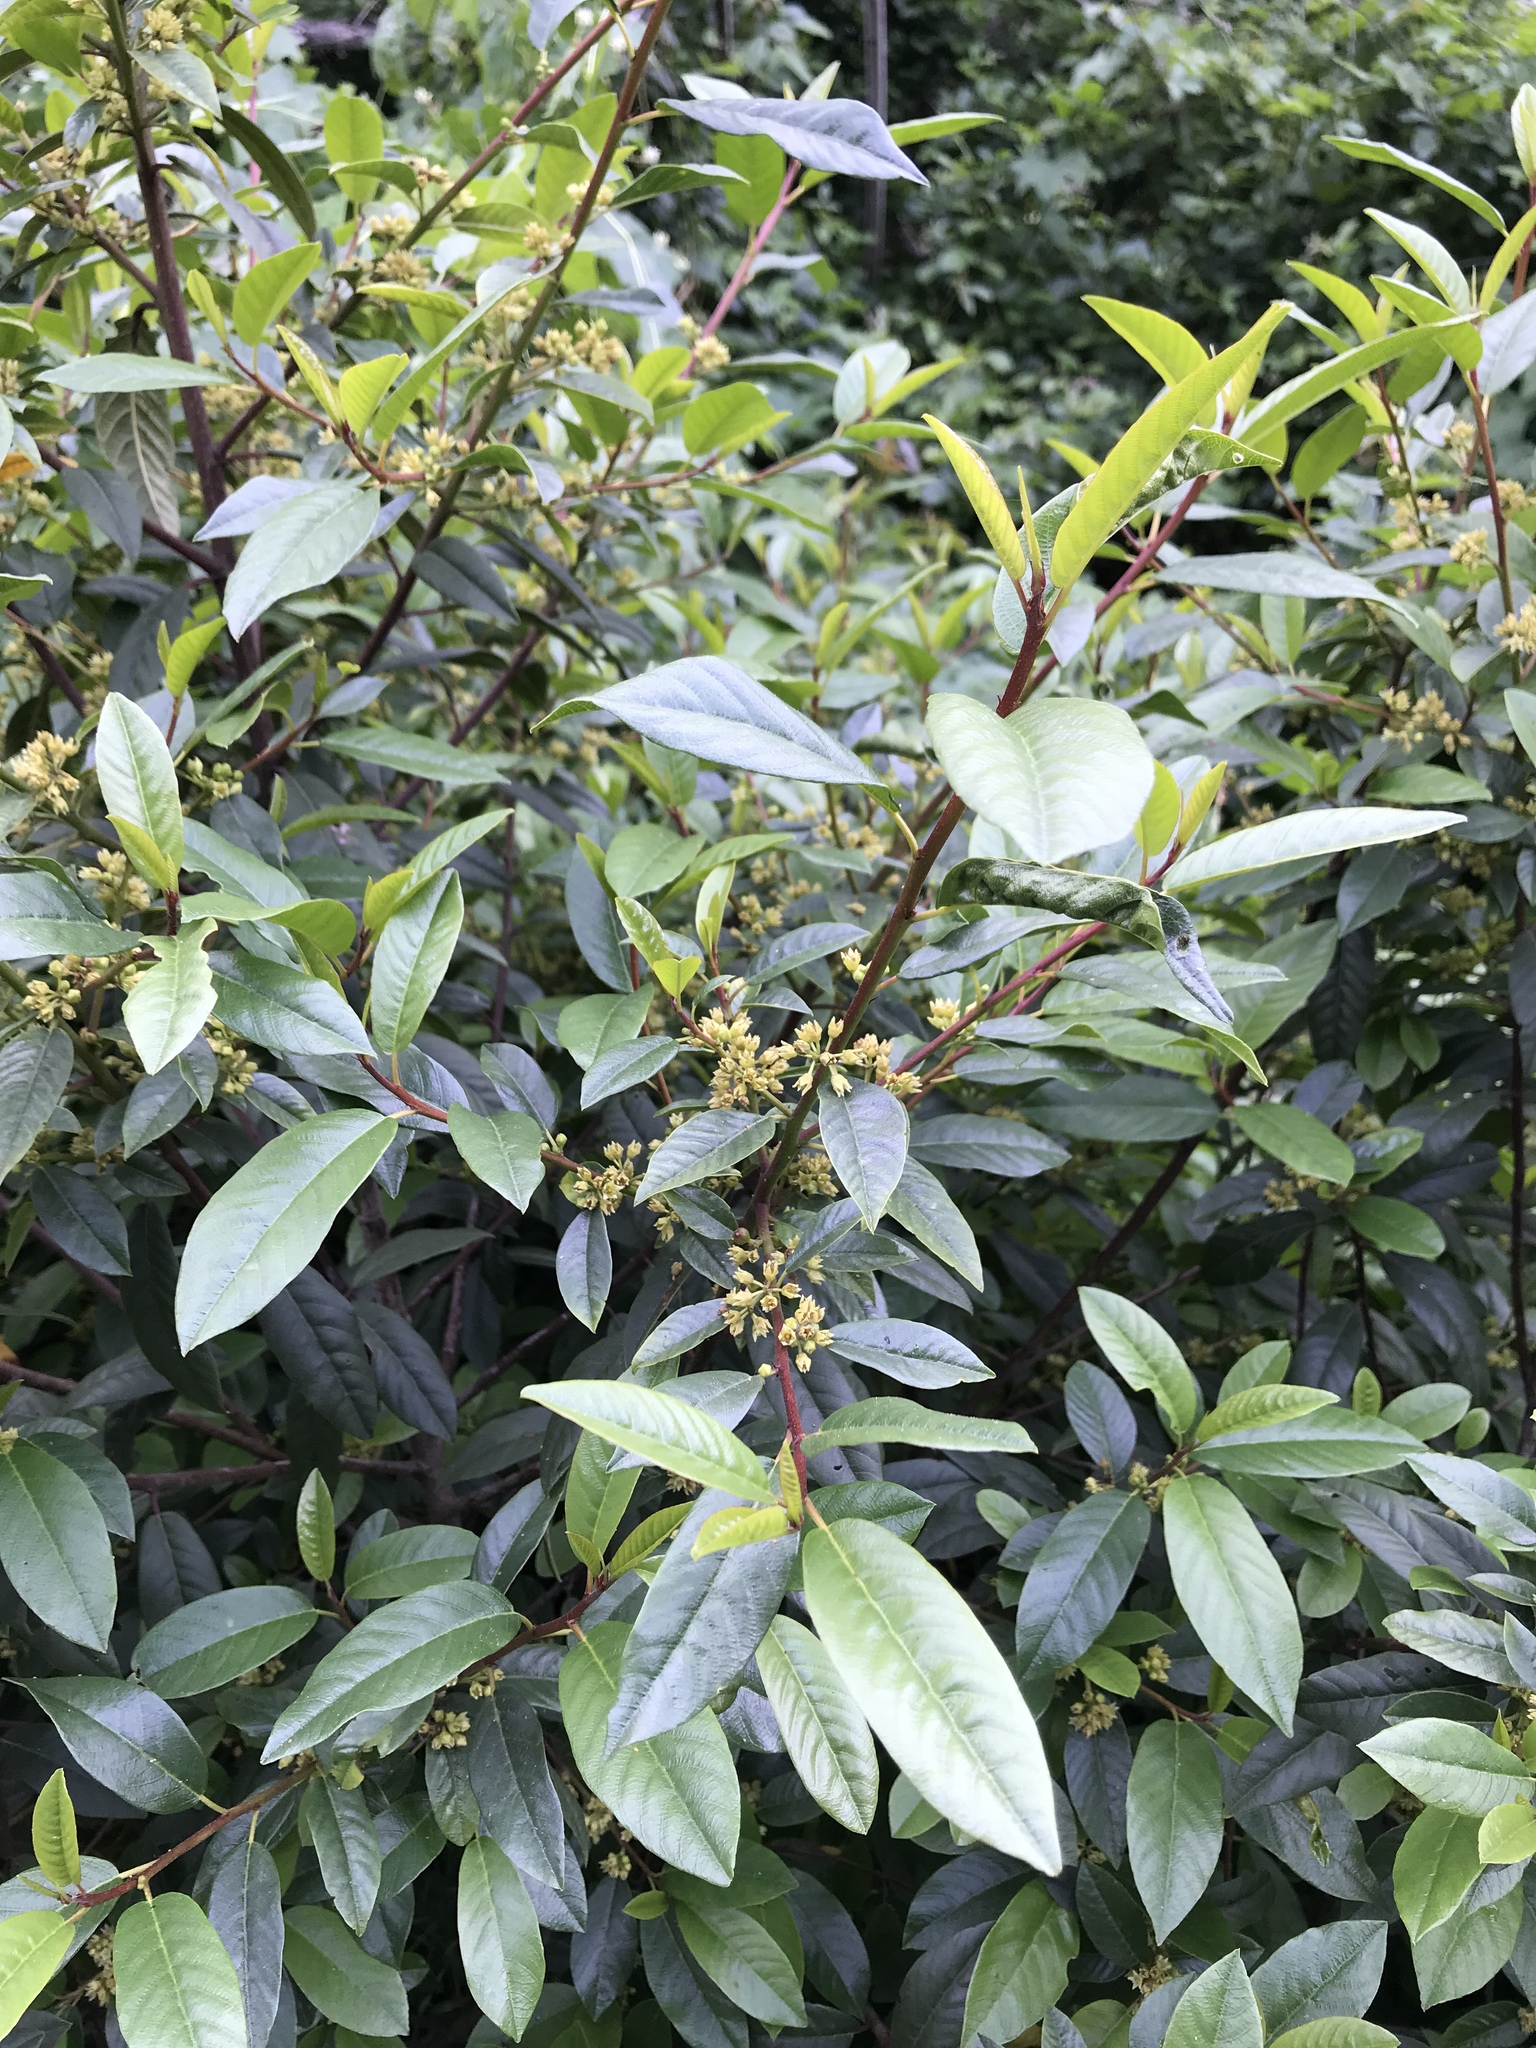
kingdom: Plantae
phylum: Tracheophyta
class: Magnoliopsida
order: Rosales
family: Rhamnaceae
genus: Frangula
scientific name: Frangula californica
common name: California buckthorn
